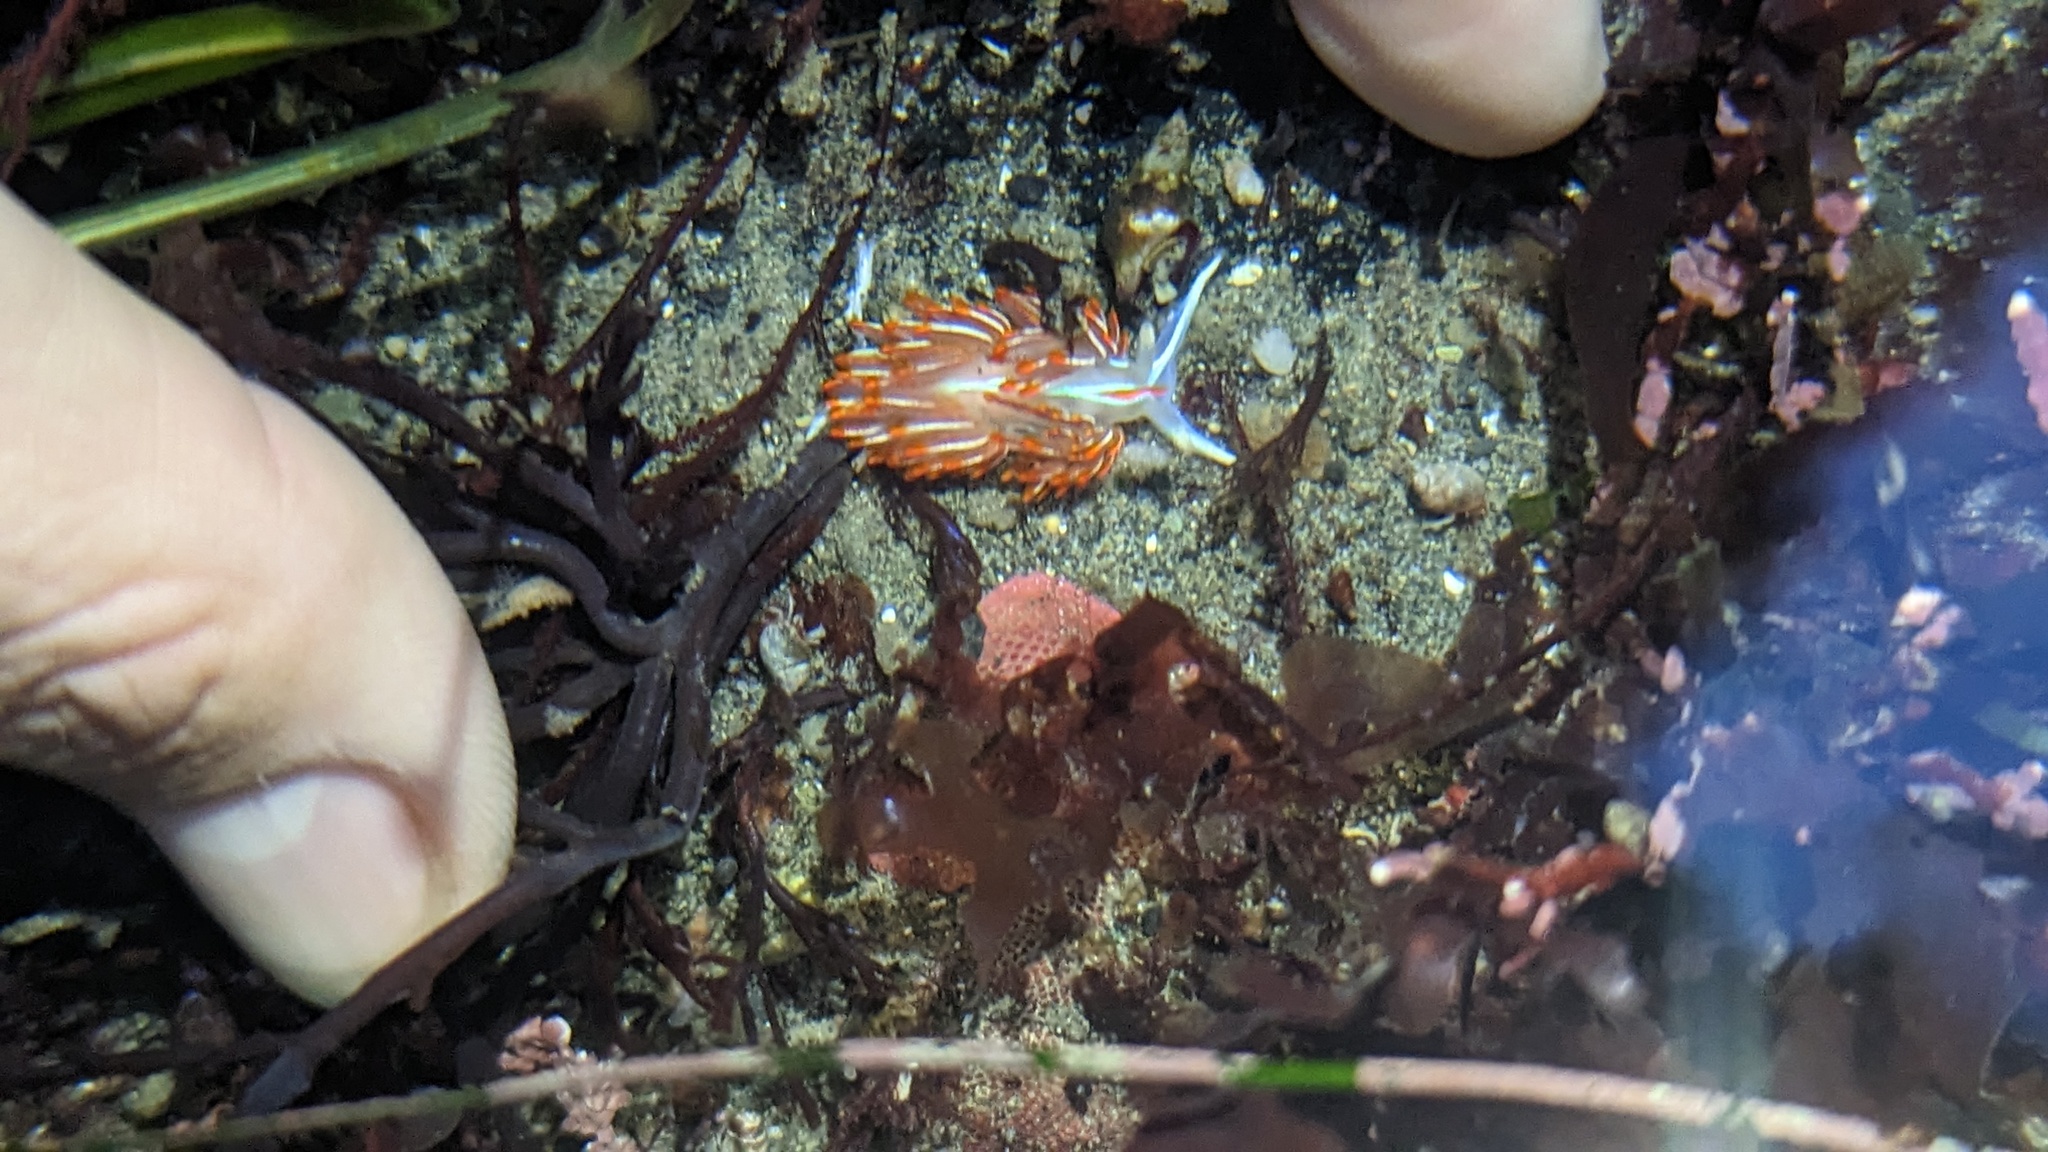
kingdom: Animalia
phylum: Mollusca
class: Gastropoda
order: Nudibranchia
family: Myrrhinidae
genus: Hermissenda
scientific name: Hermissenda crassicornis
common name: Hermissenda
